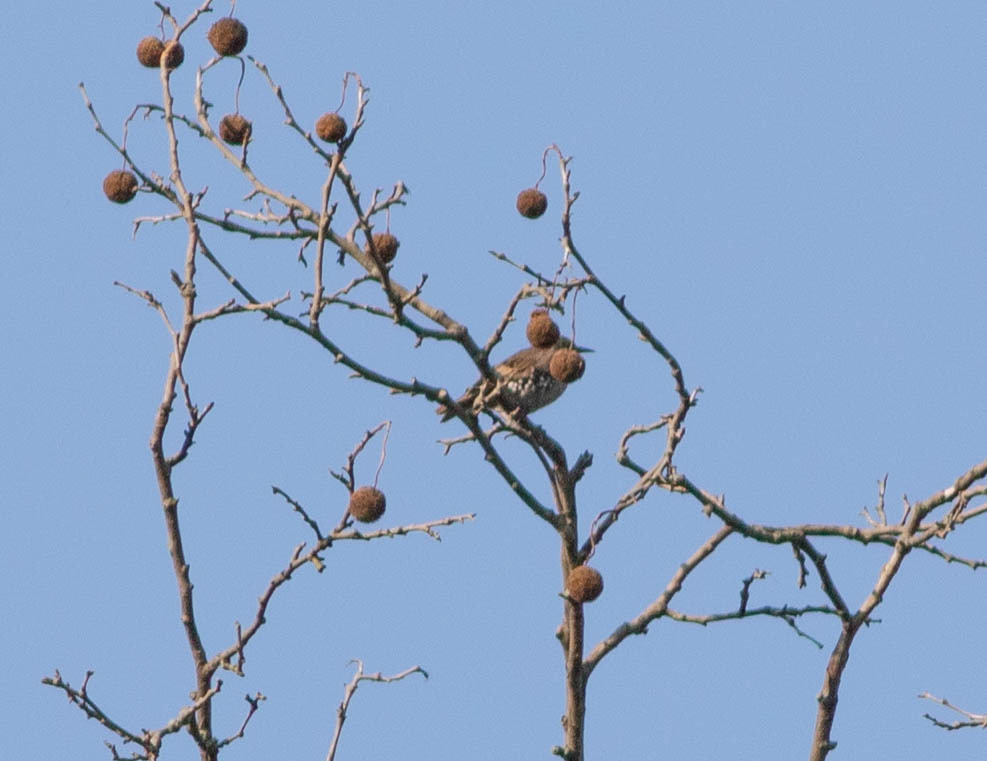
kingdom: Animalia
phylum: Chordata
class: Aves
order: Passeriformes
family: Sturnidae
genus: Sturnus
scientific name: Sturnus vulgaris
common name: Common starling
